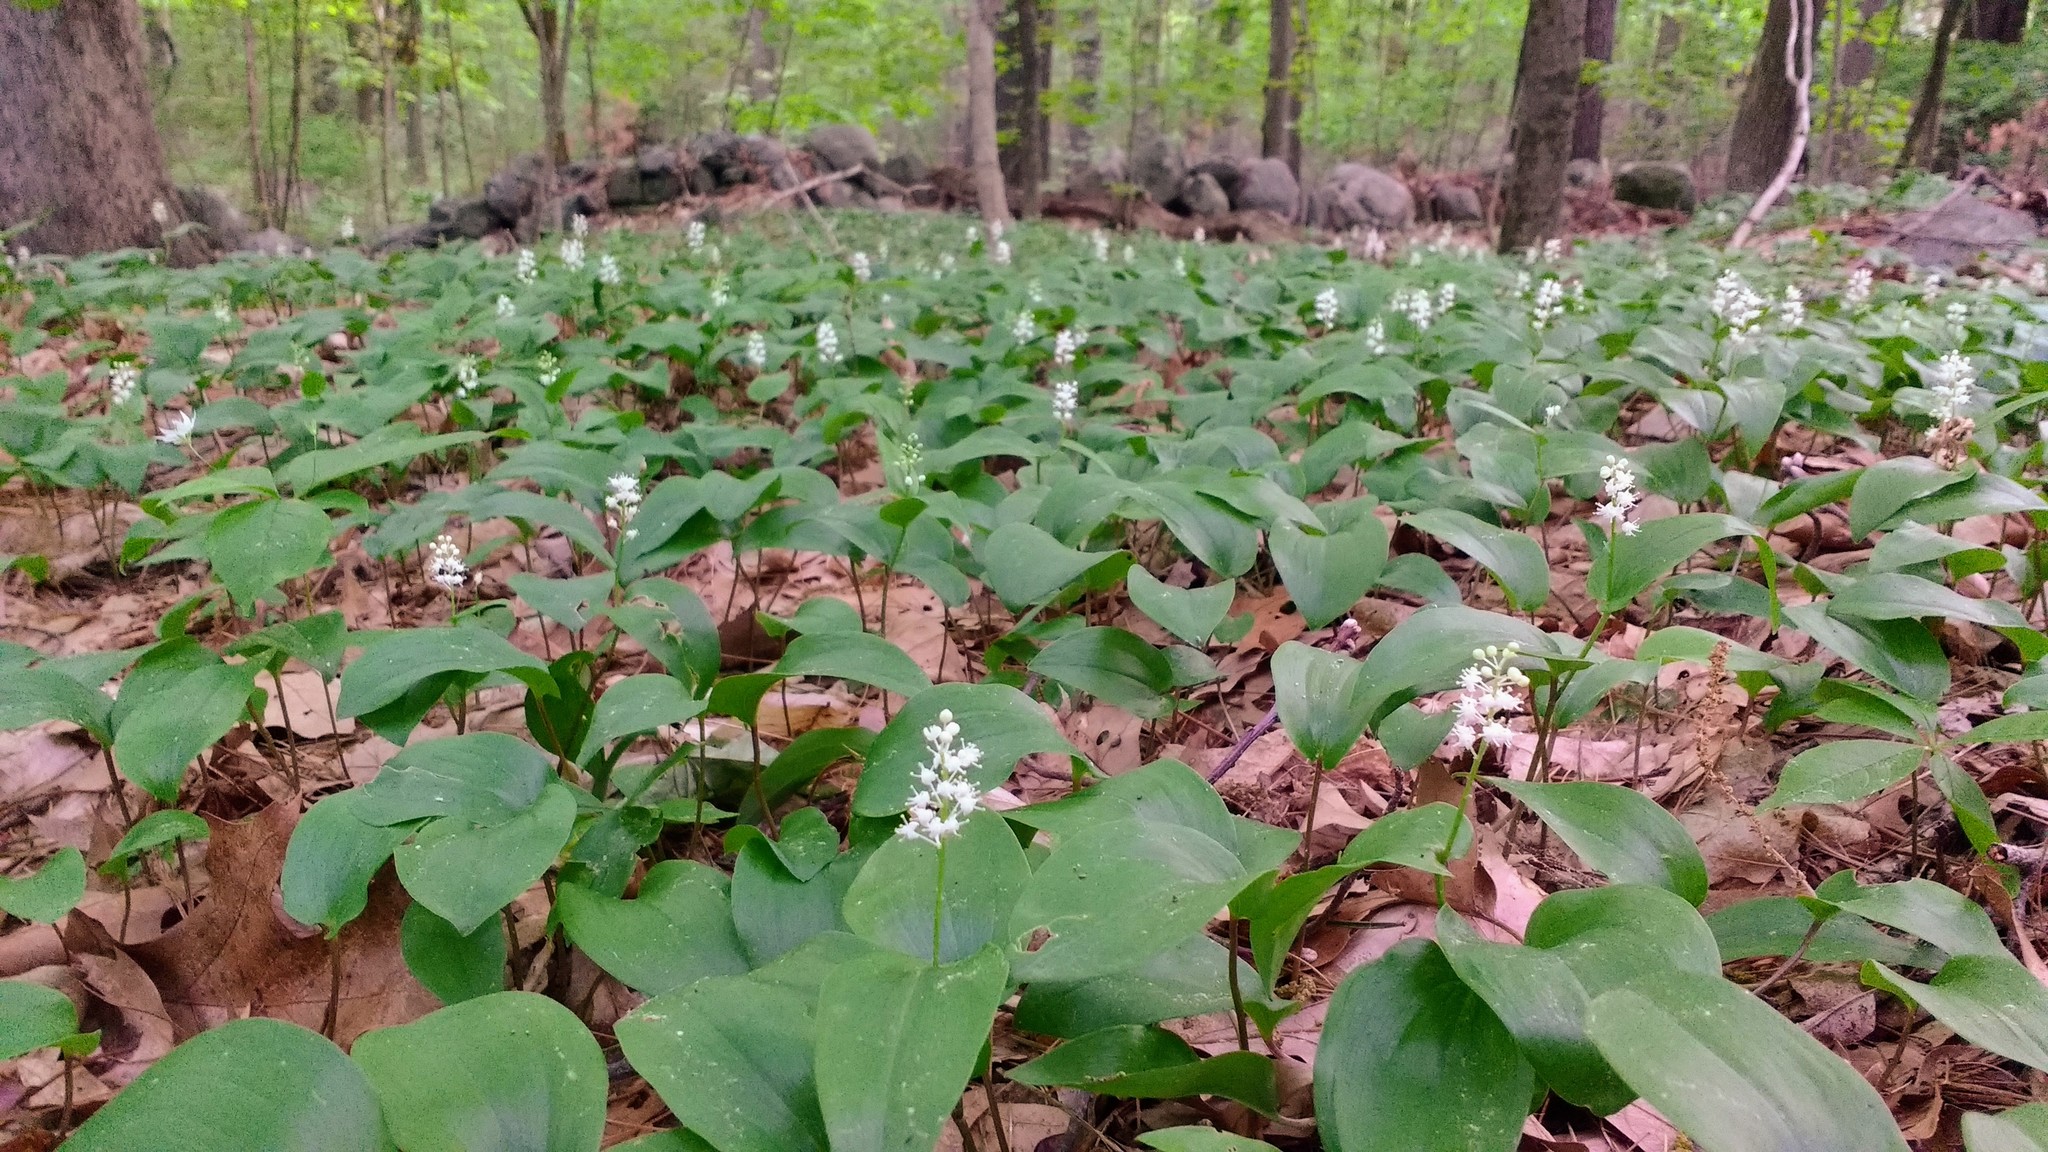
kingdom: Plantae
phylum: Tracheophyta
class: Liliopsida
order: Asparagales
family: Asparagaceae
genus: Maianthemum
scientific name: Maianthemum canadense
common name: False lily-of-the-valley
